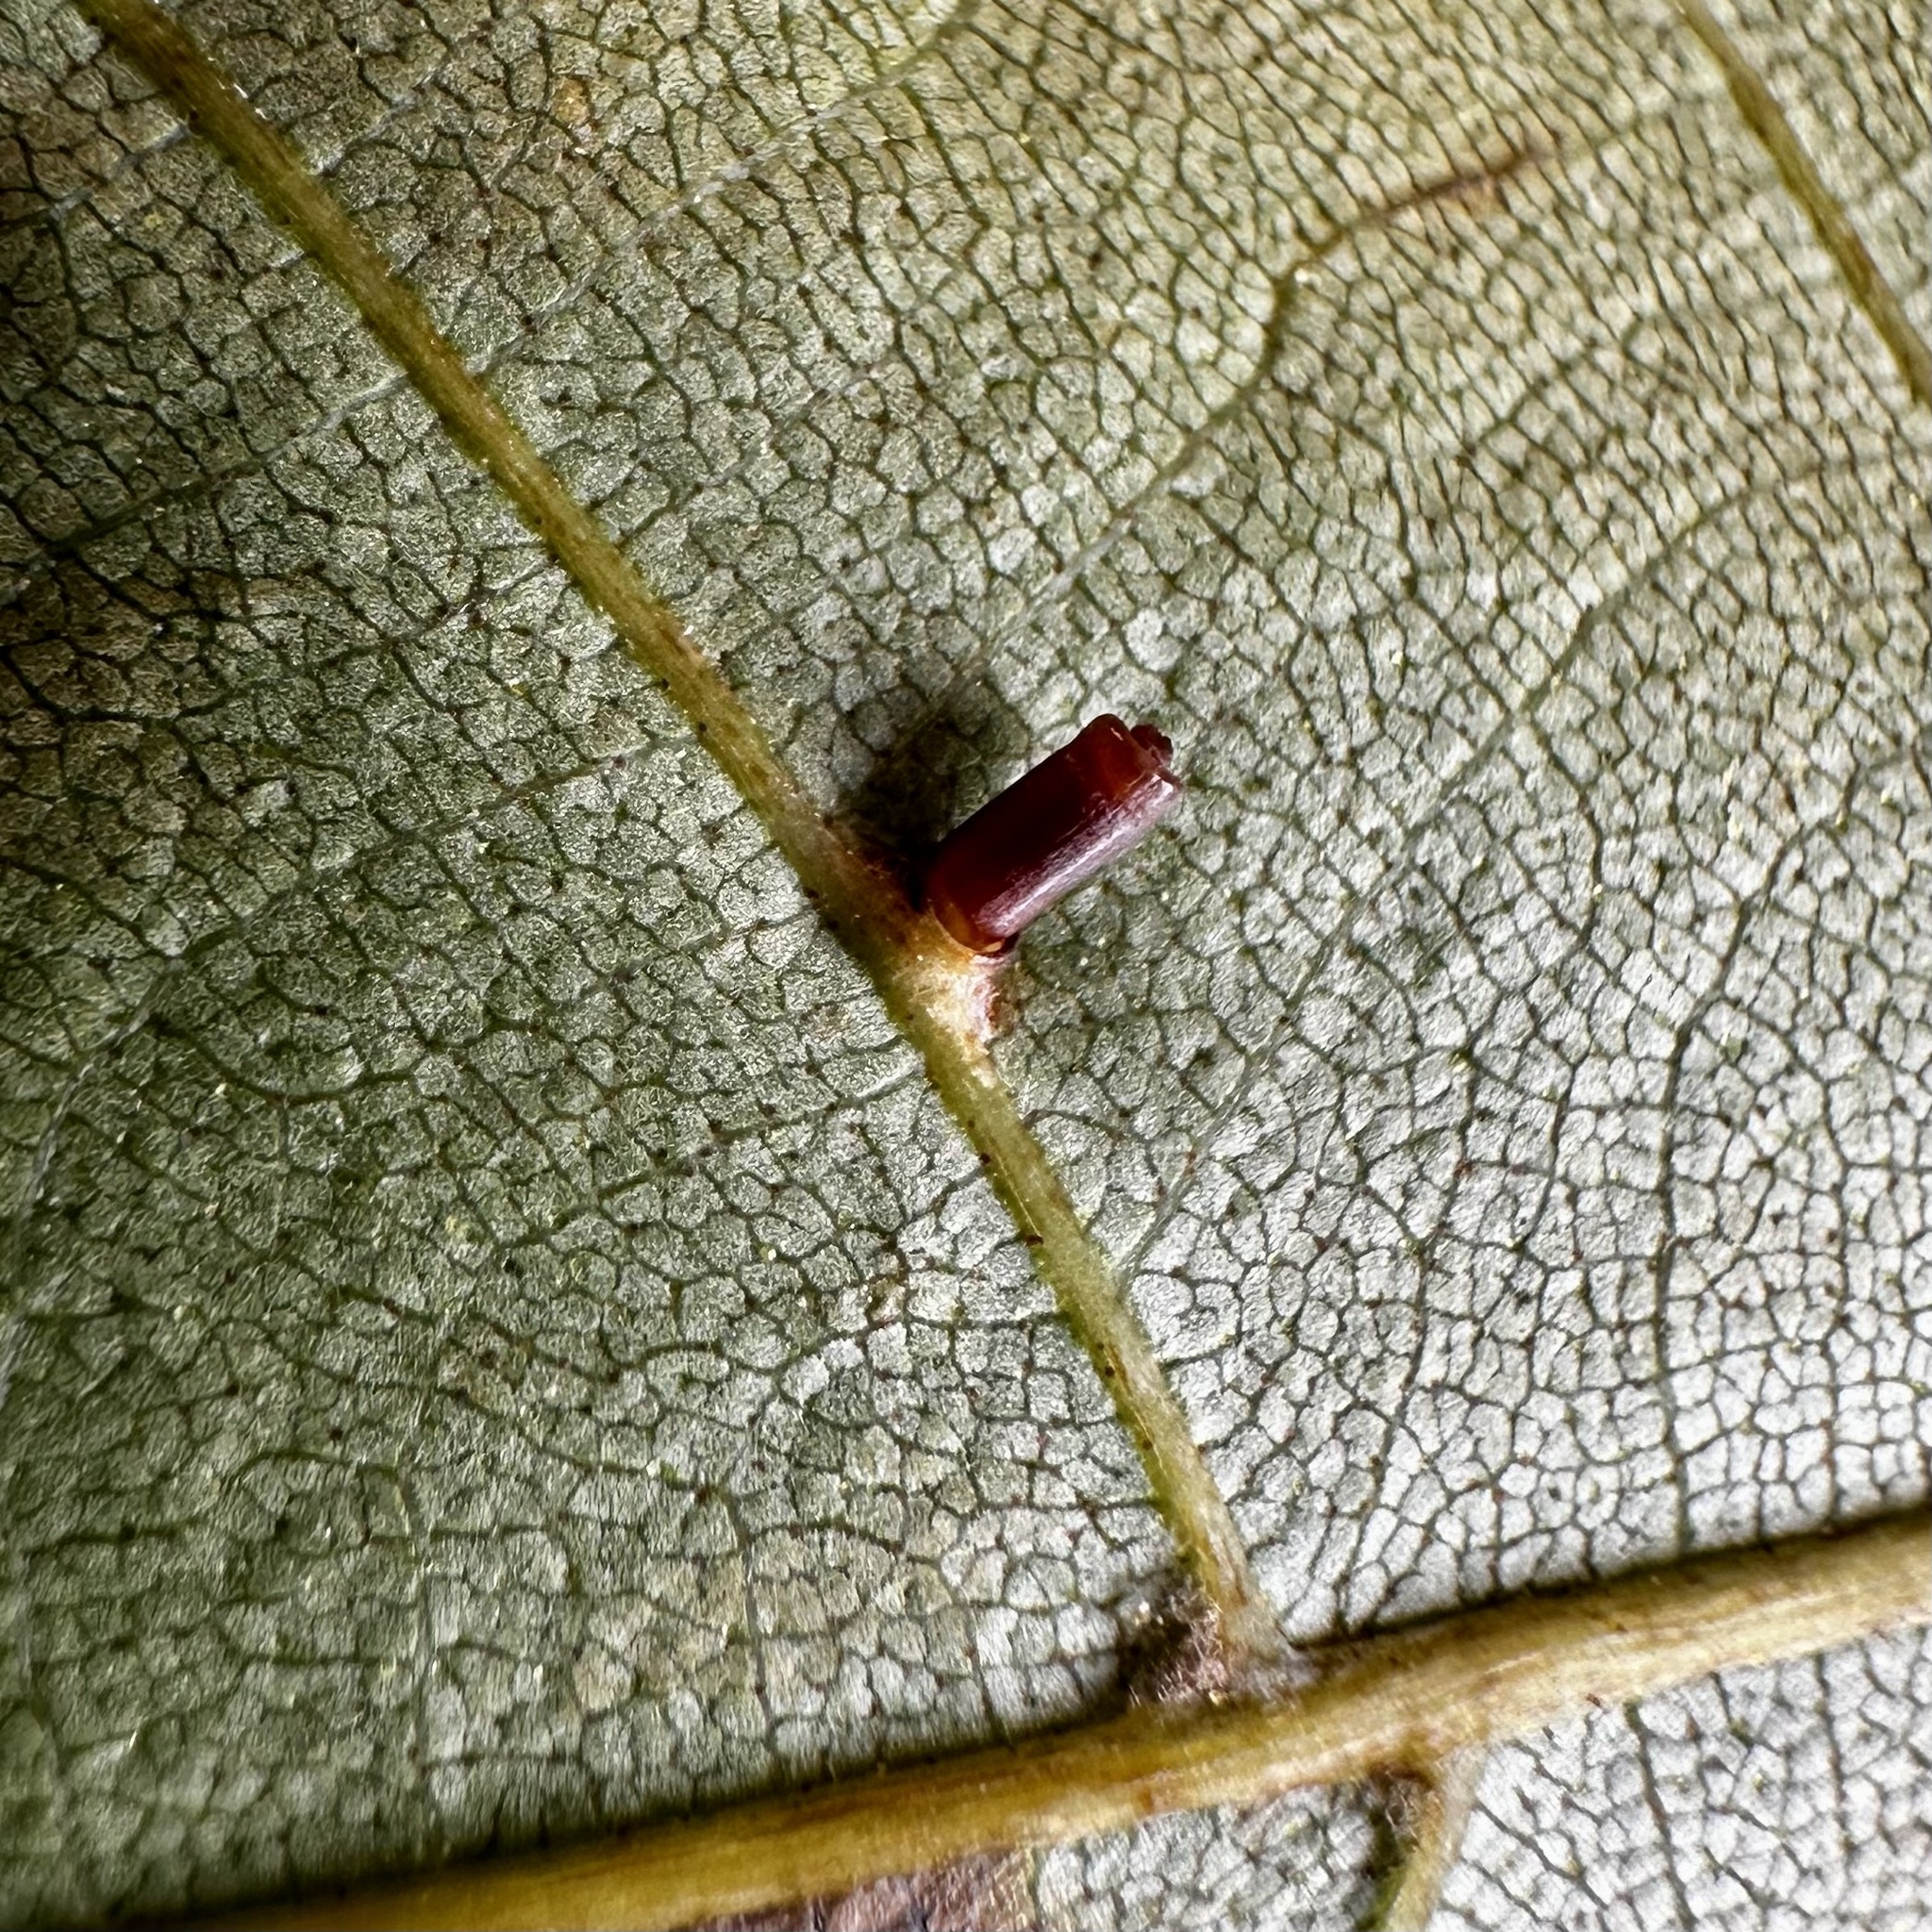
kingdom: Animalia
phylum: Arthropoda
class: Insecta
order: Diptera
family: Cecidomyiidae
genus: Caryomyia
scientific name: Caryomyia tubicola
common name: Hickory bullet gall midge
